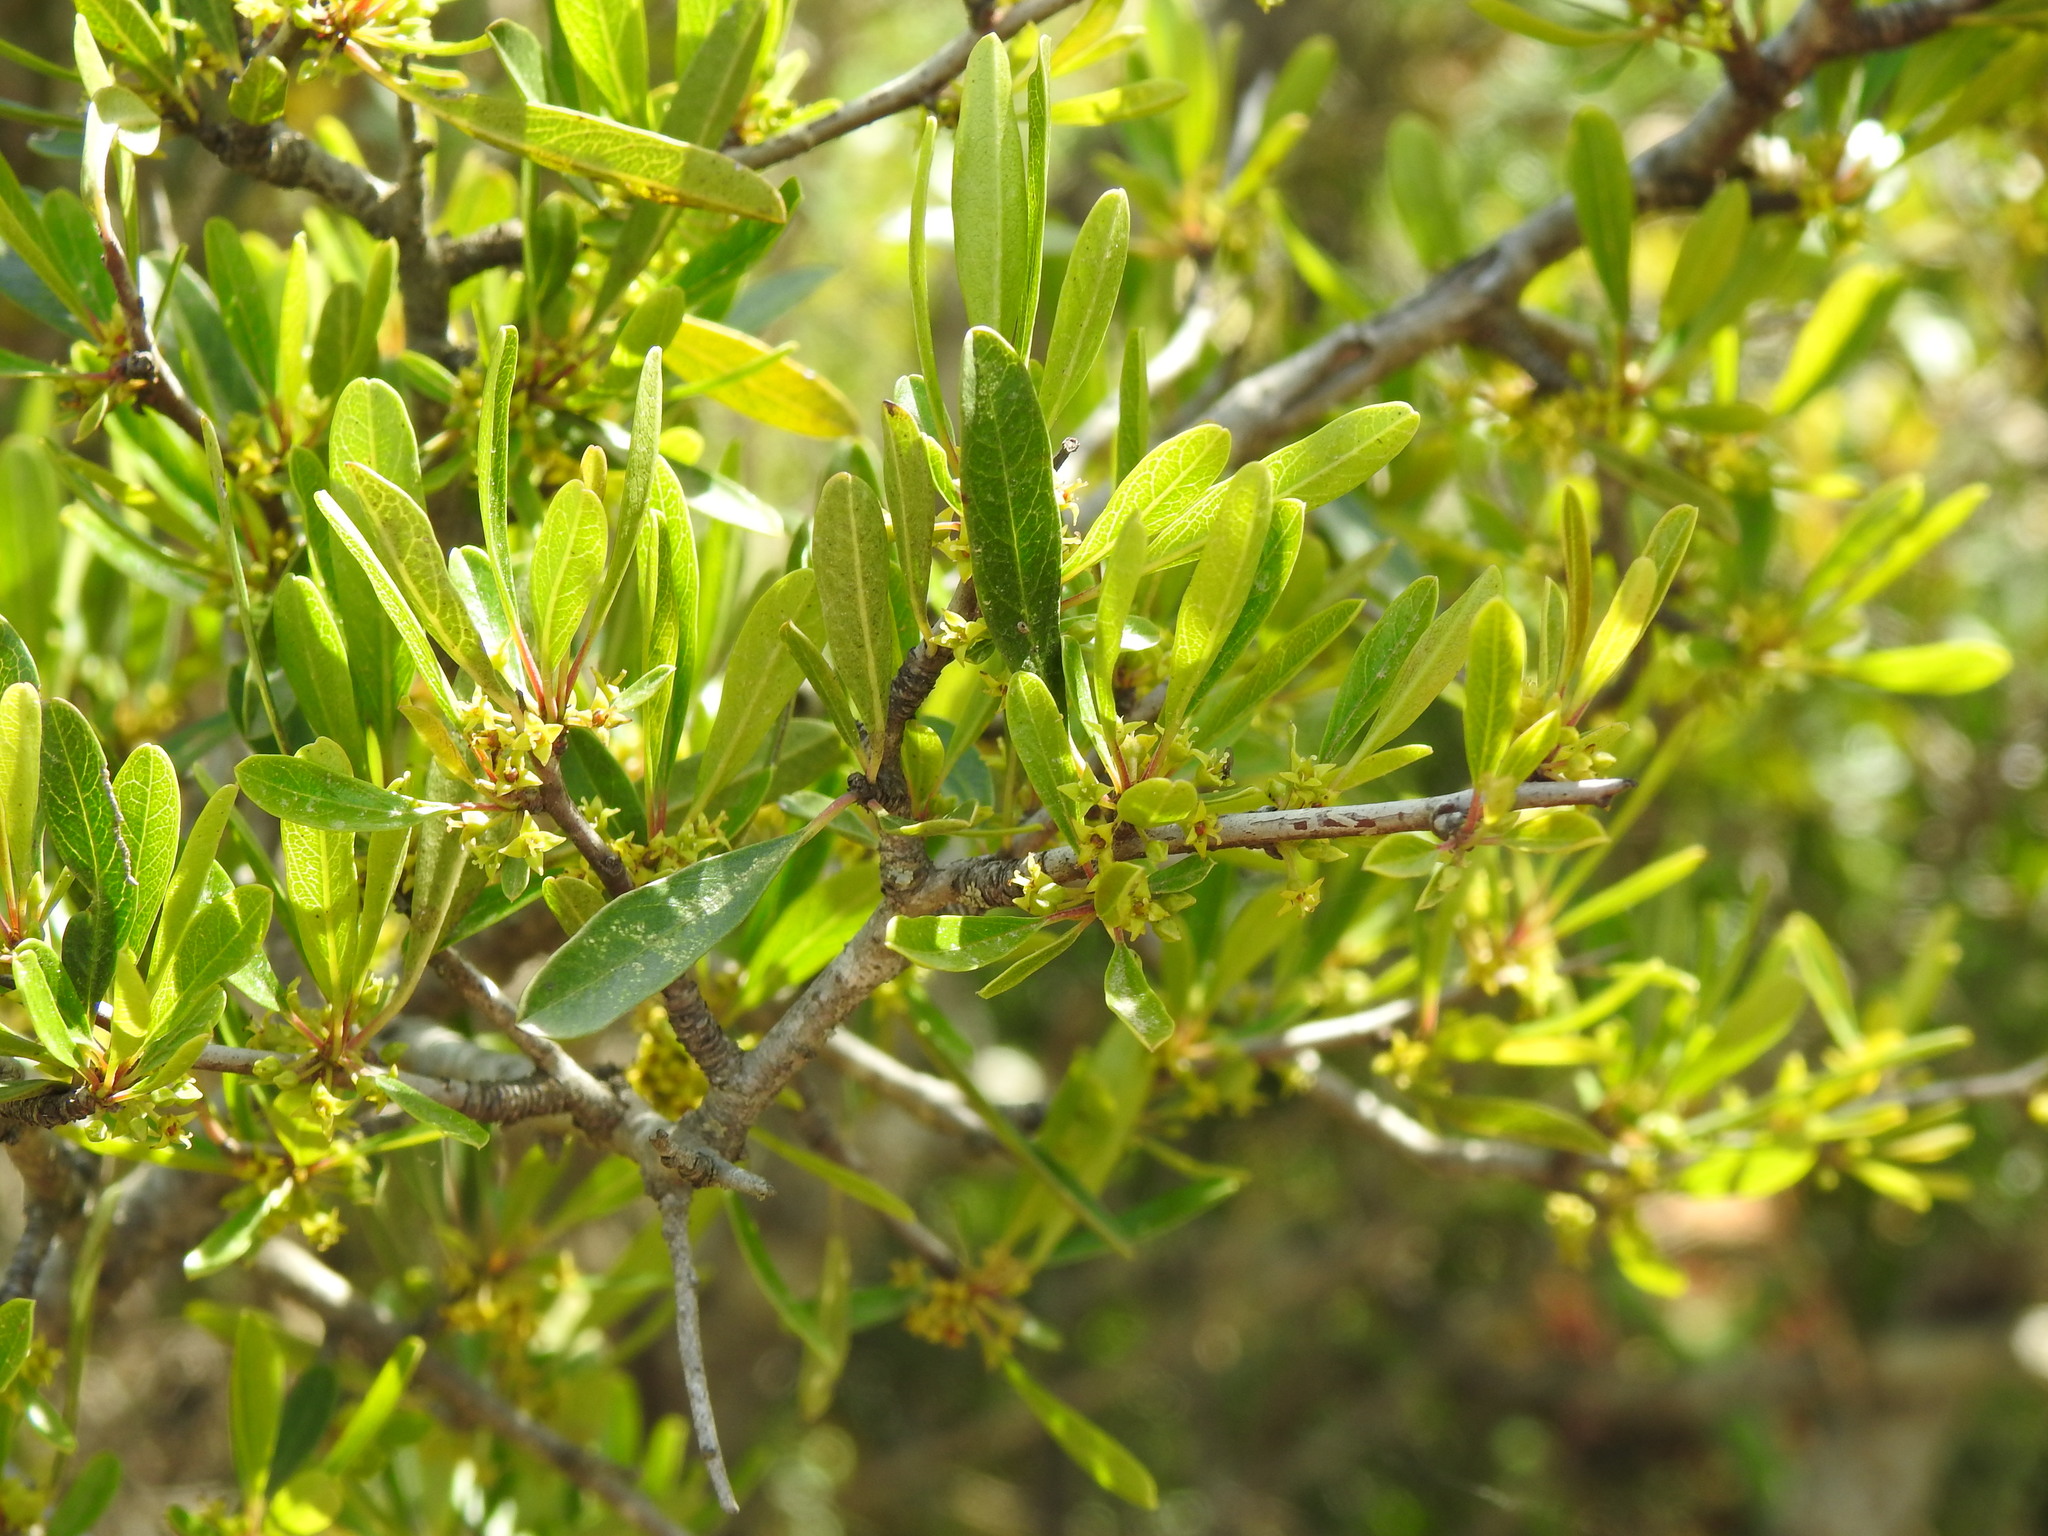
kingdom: Plantae
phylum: Tracheophyta
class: Magnoliopsida
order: Rosales
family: Rhamnaceae
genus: Rhamnus
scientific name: Rhamnus oleoides
